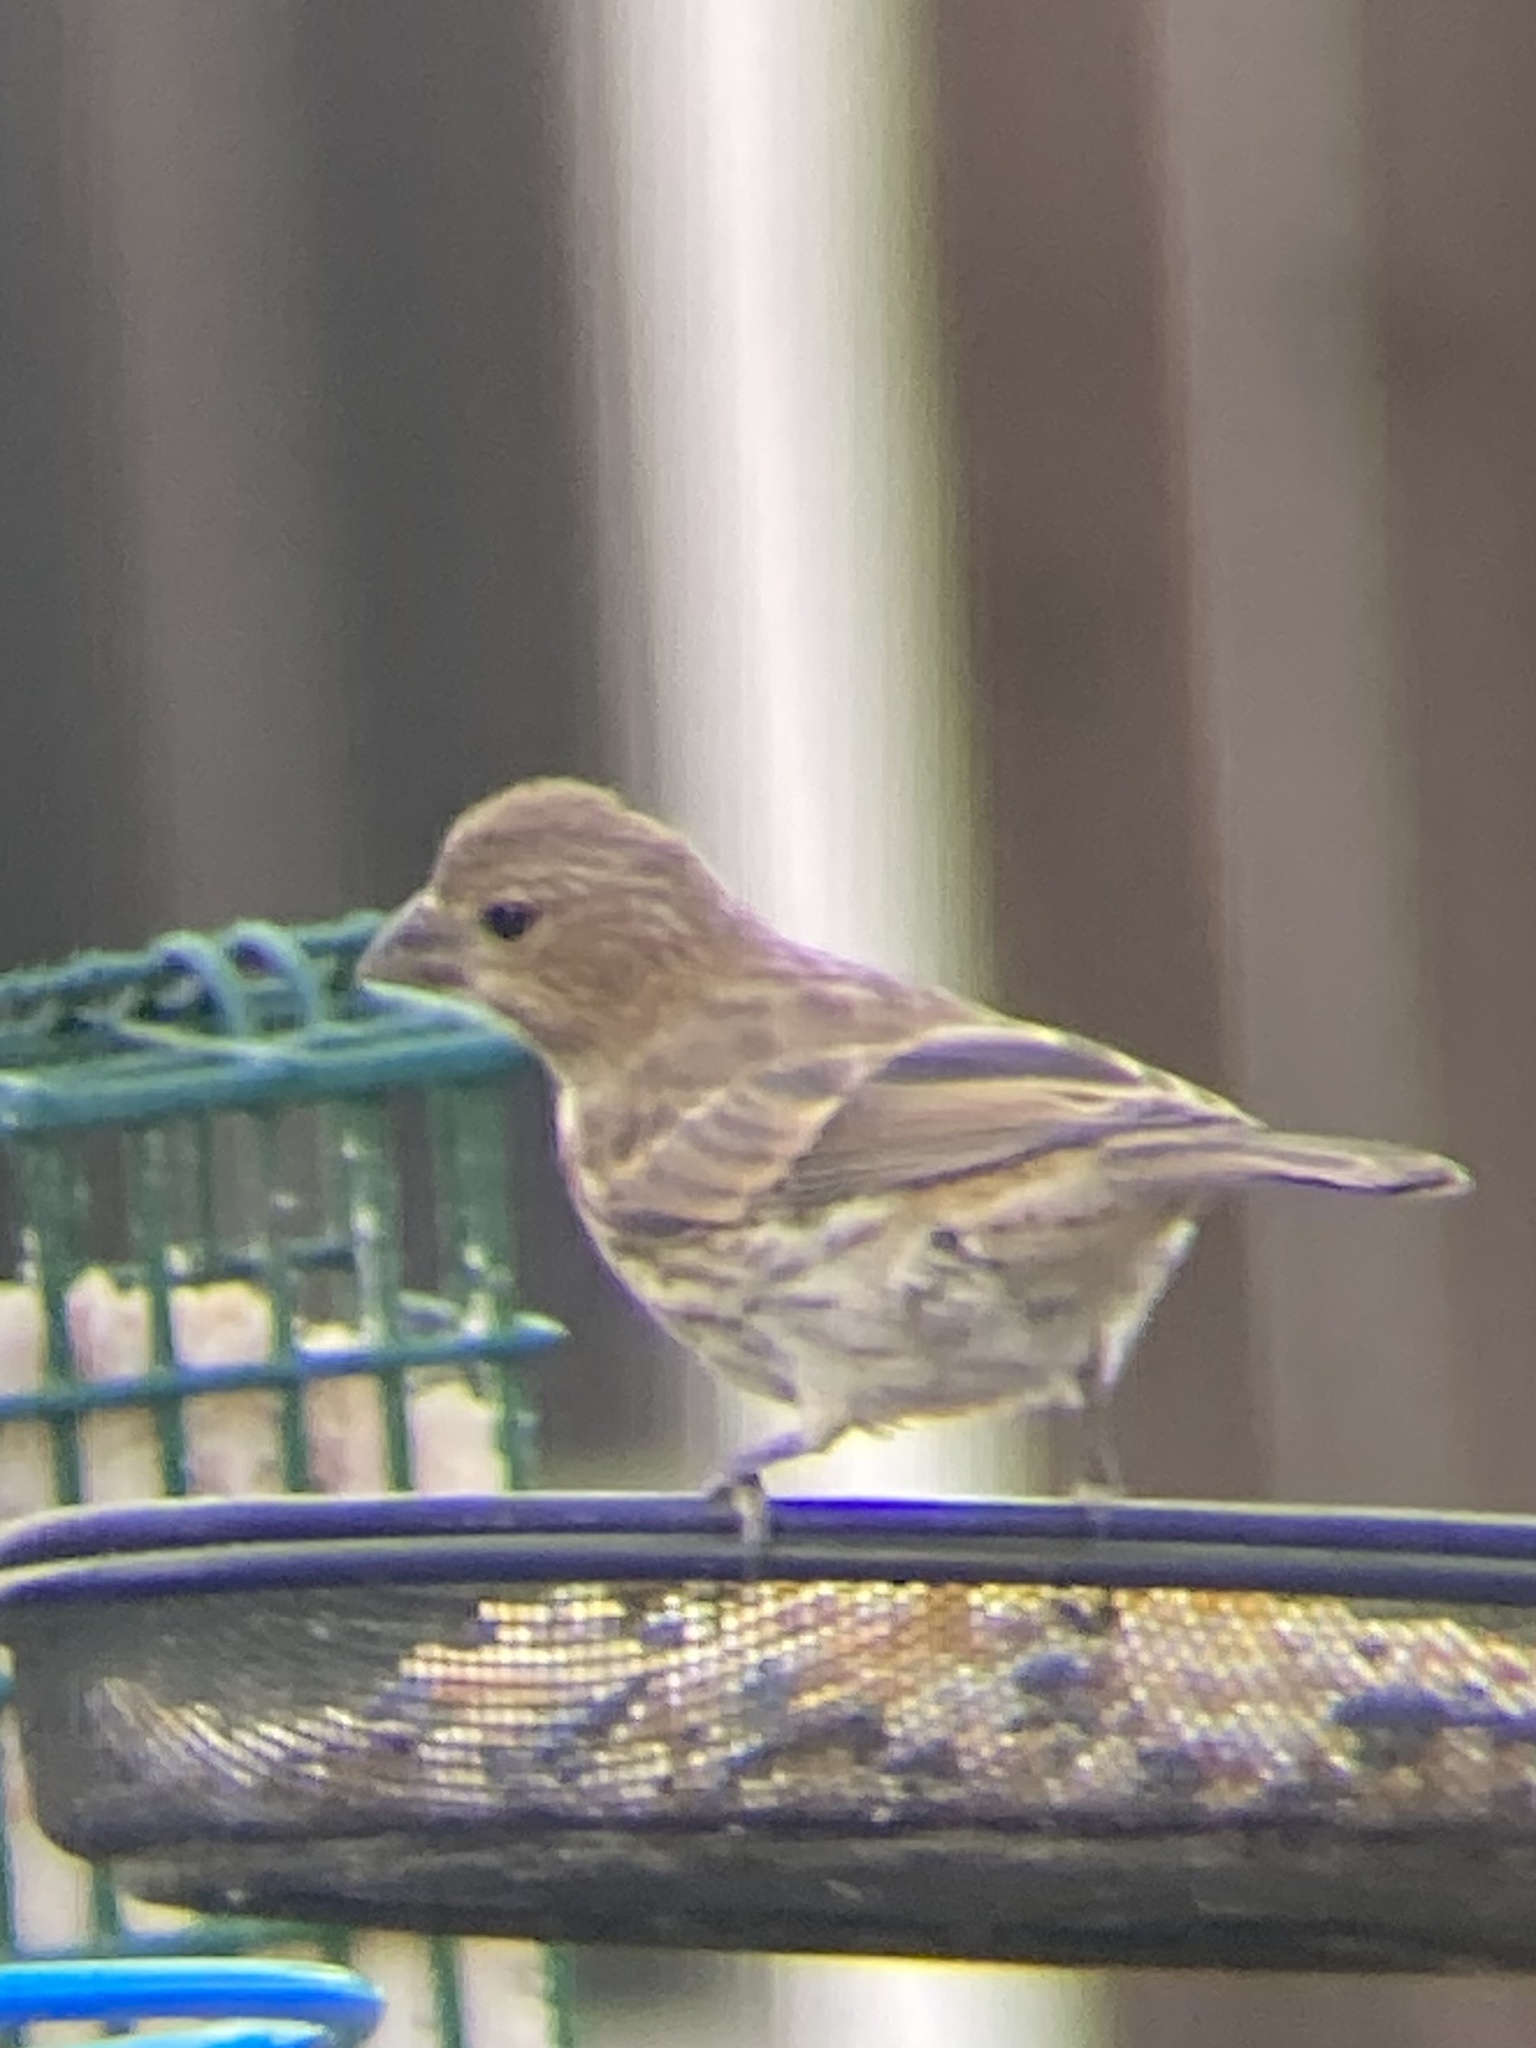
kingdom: Animalia
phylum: Chordata
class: Aves
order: Passeriformes
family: Fringillidae
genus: Haemorhous
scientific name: Haemorhous mexicanus
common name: House finch
